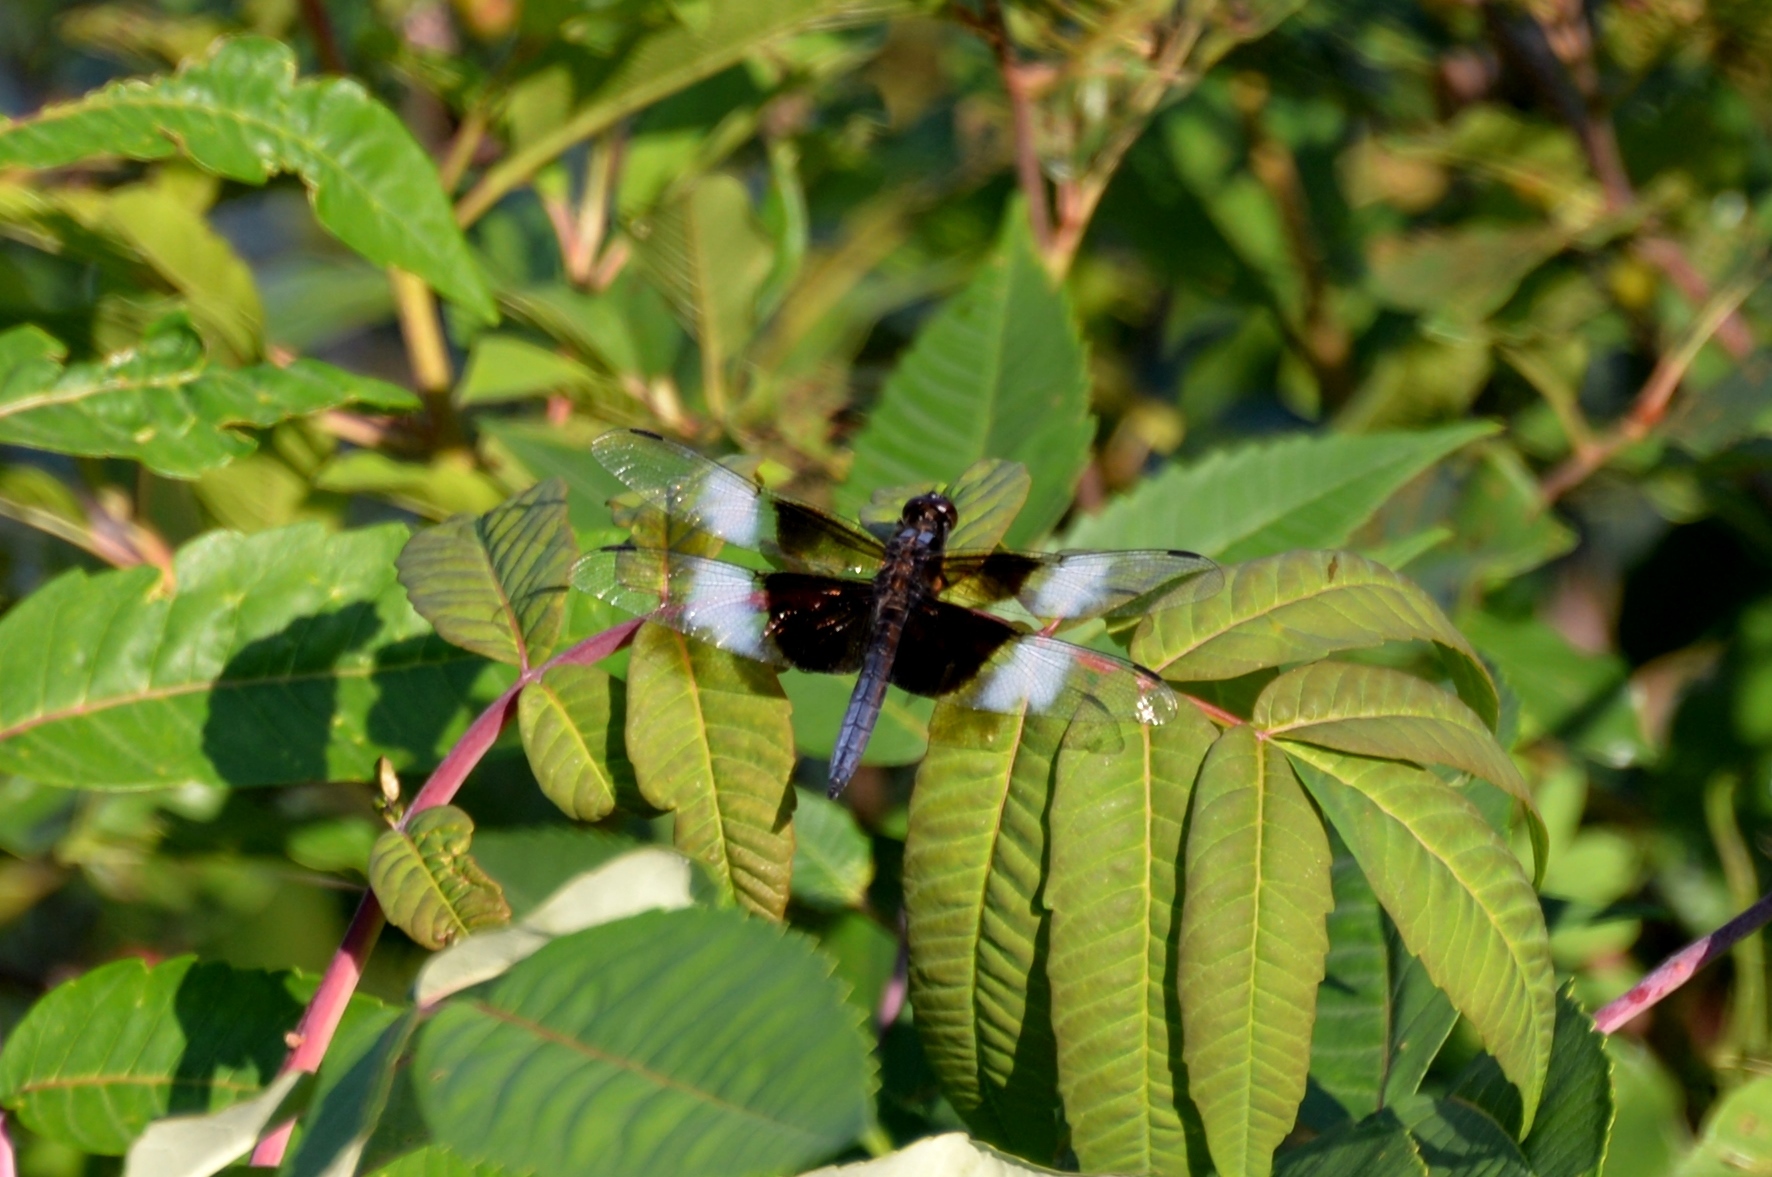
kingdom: Animalia
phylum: Arthropoda
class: Insecta
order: Odonata
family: Libellulidae
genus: Libellula
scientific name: Libellula luctuosa
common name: Widow skimmer
